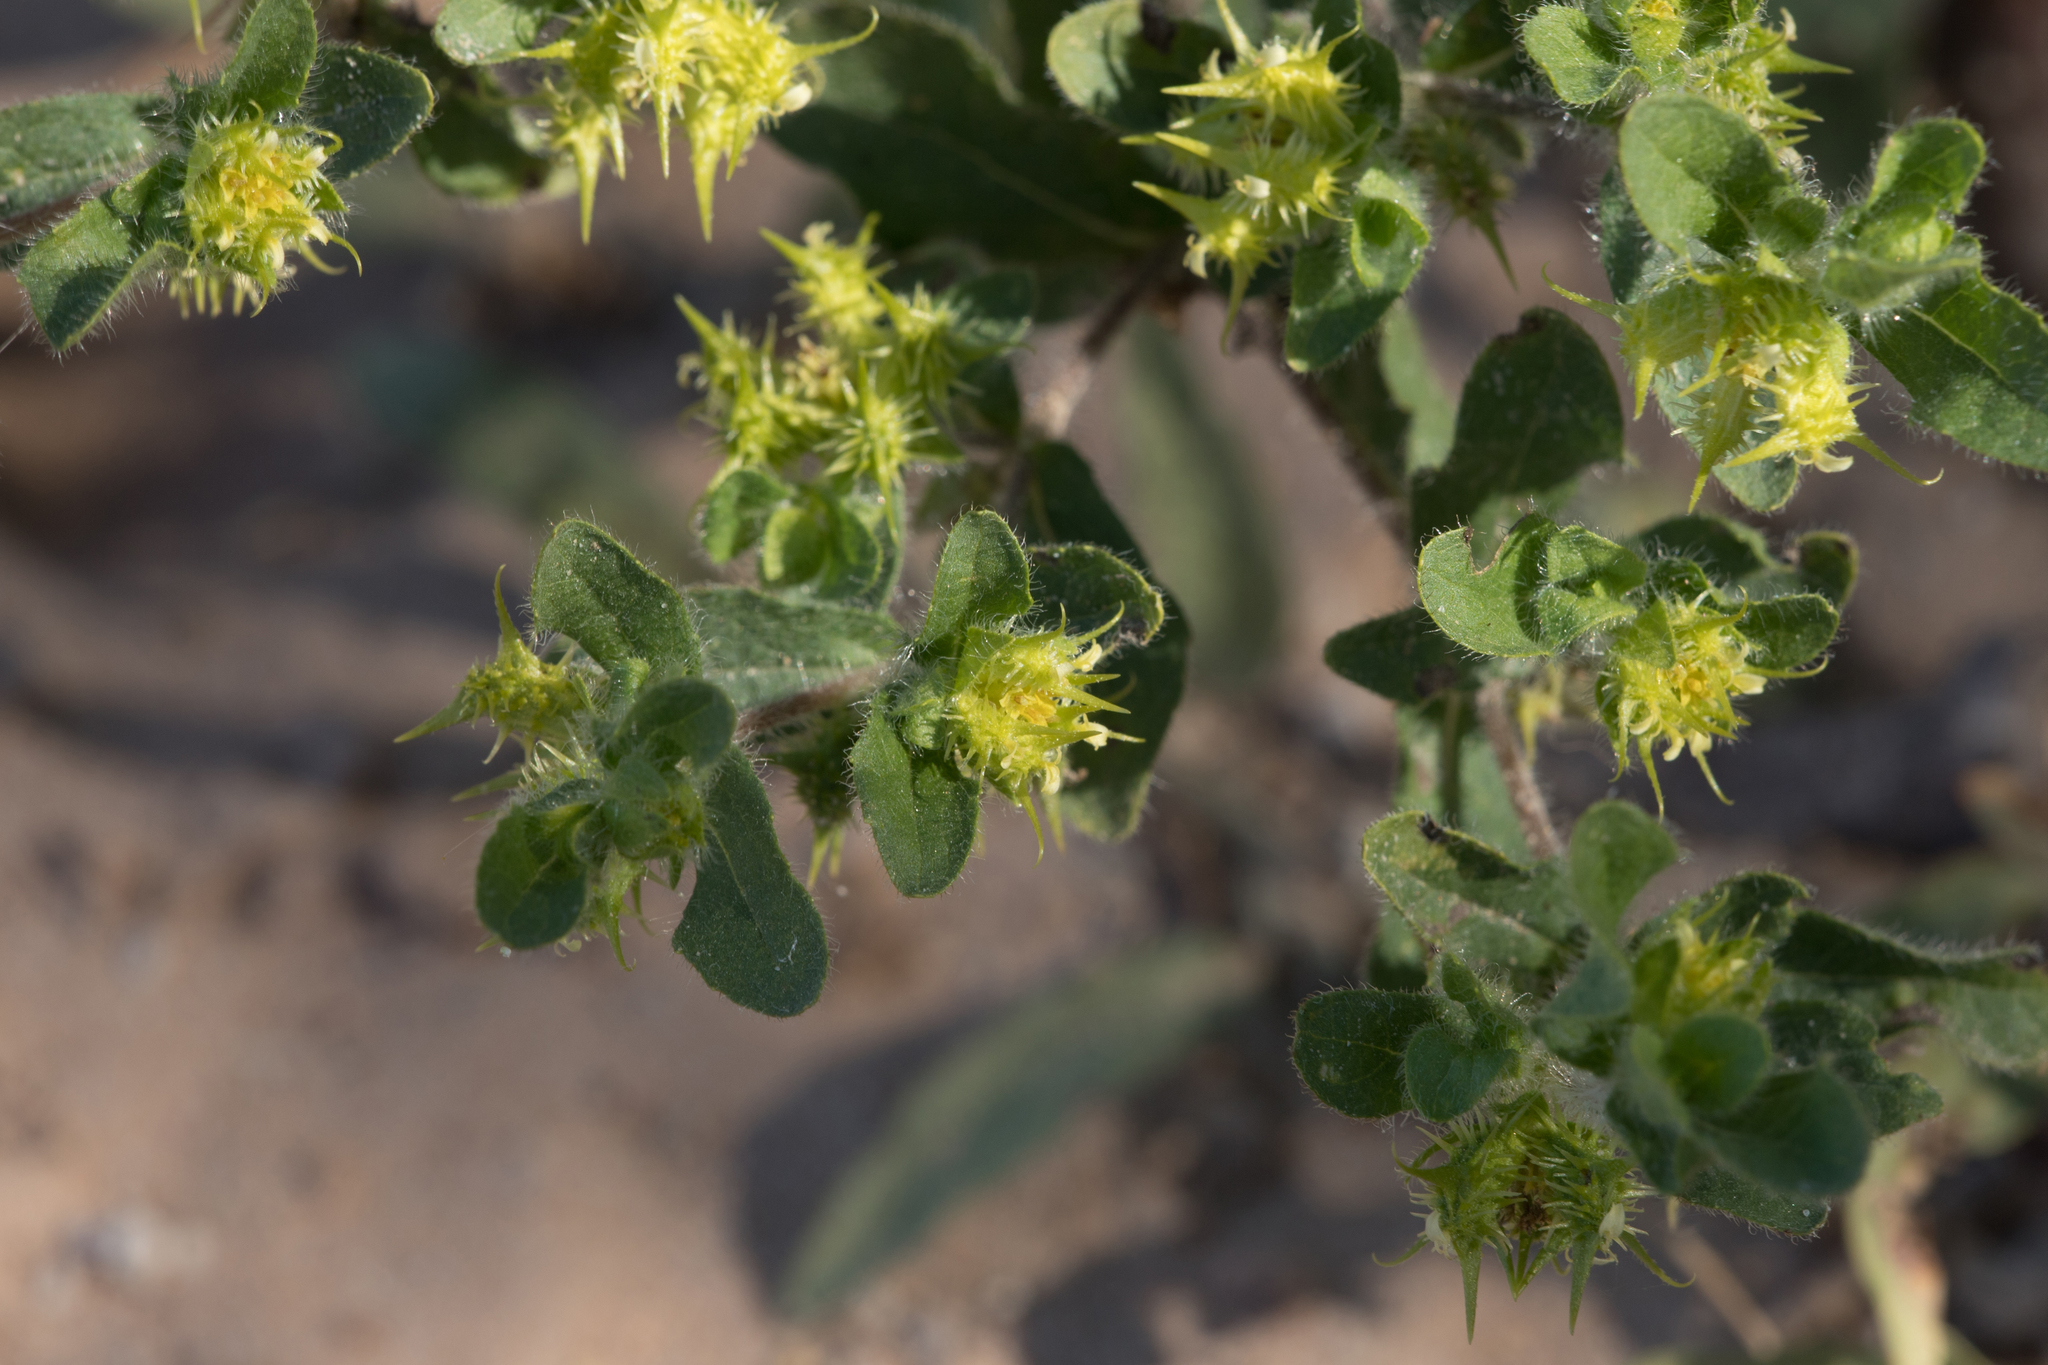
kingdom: Plantae
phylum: Tracheophyta
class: Magnoliopsida
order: Asterales
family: Asteraceae
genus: Acanthospermum
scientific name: Acanthospermum hispidum
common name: Hispid starbur
